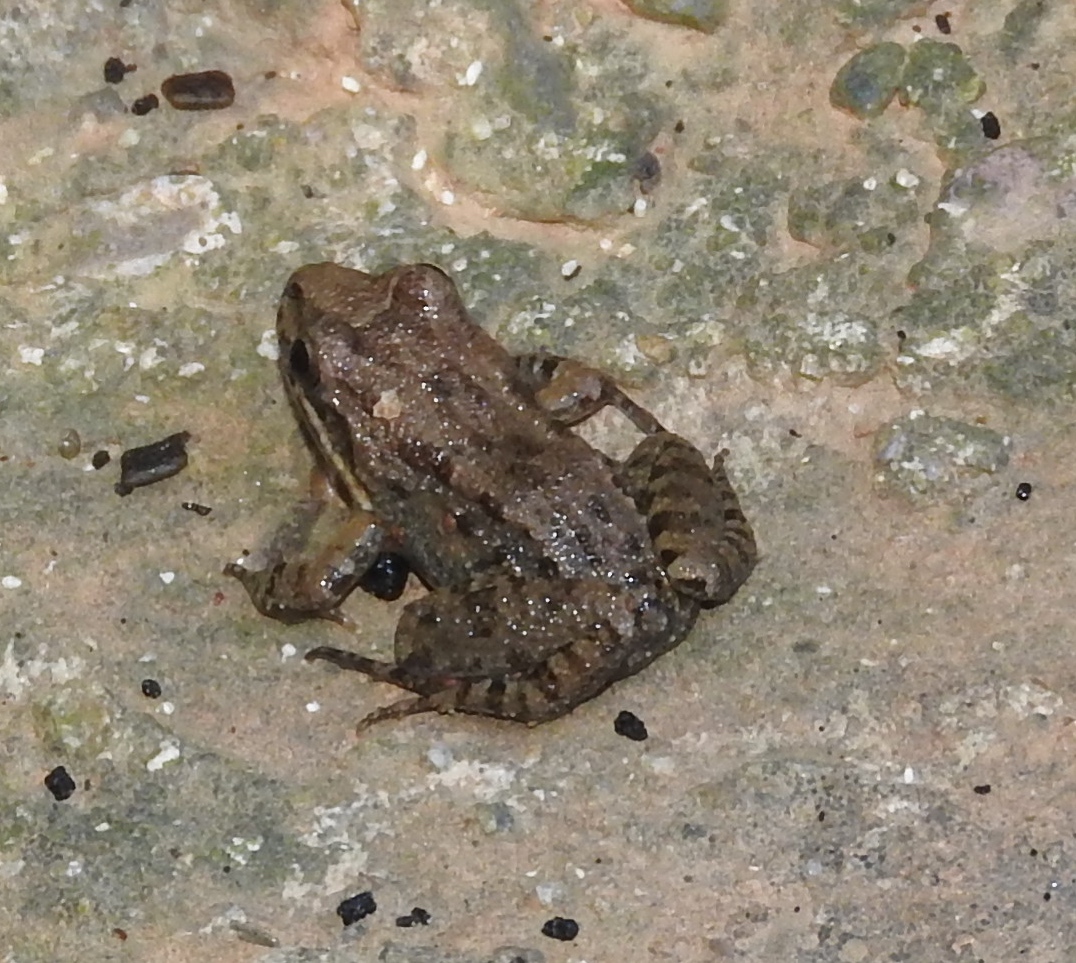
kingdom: Animalia
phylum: Chordata
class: Amphibia
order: Anura
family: Leptodactylidae
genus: Leptodactylus
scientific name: Leptodactylus melanonotus
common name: Fringe-toed foamfrog
